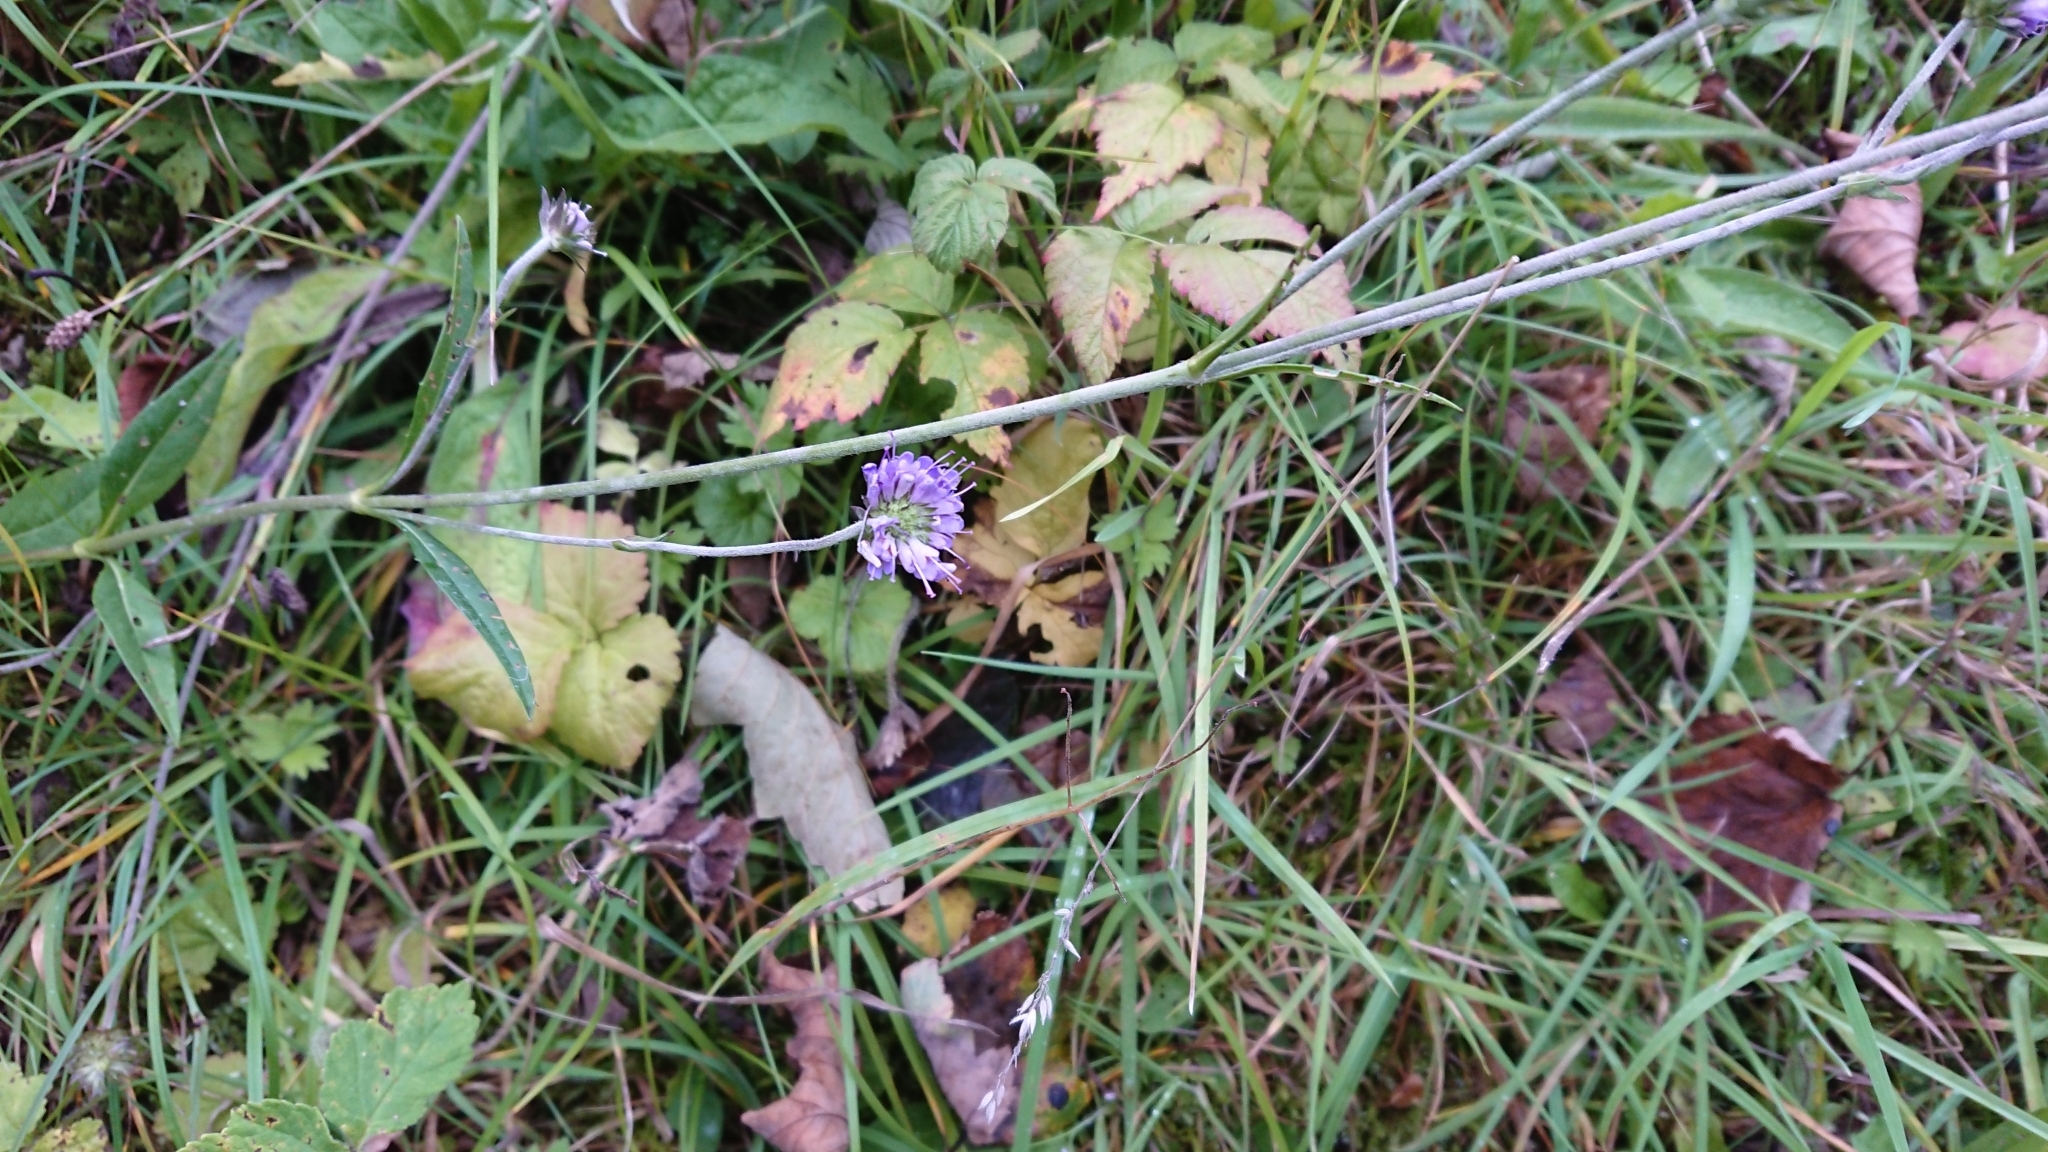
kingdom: Plantae
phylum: Tracheophyta
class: Magnoliopsida
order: Dipsacales
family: Caprifoliaceae
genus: Succisa
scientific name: Succisa pratensis
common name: Devil's-bit
